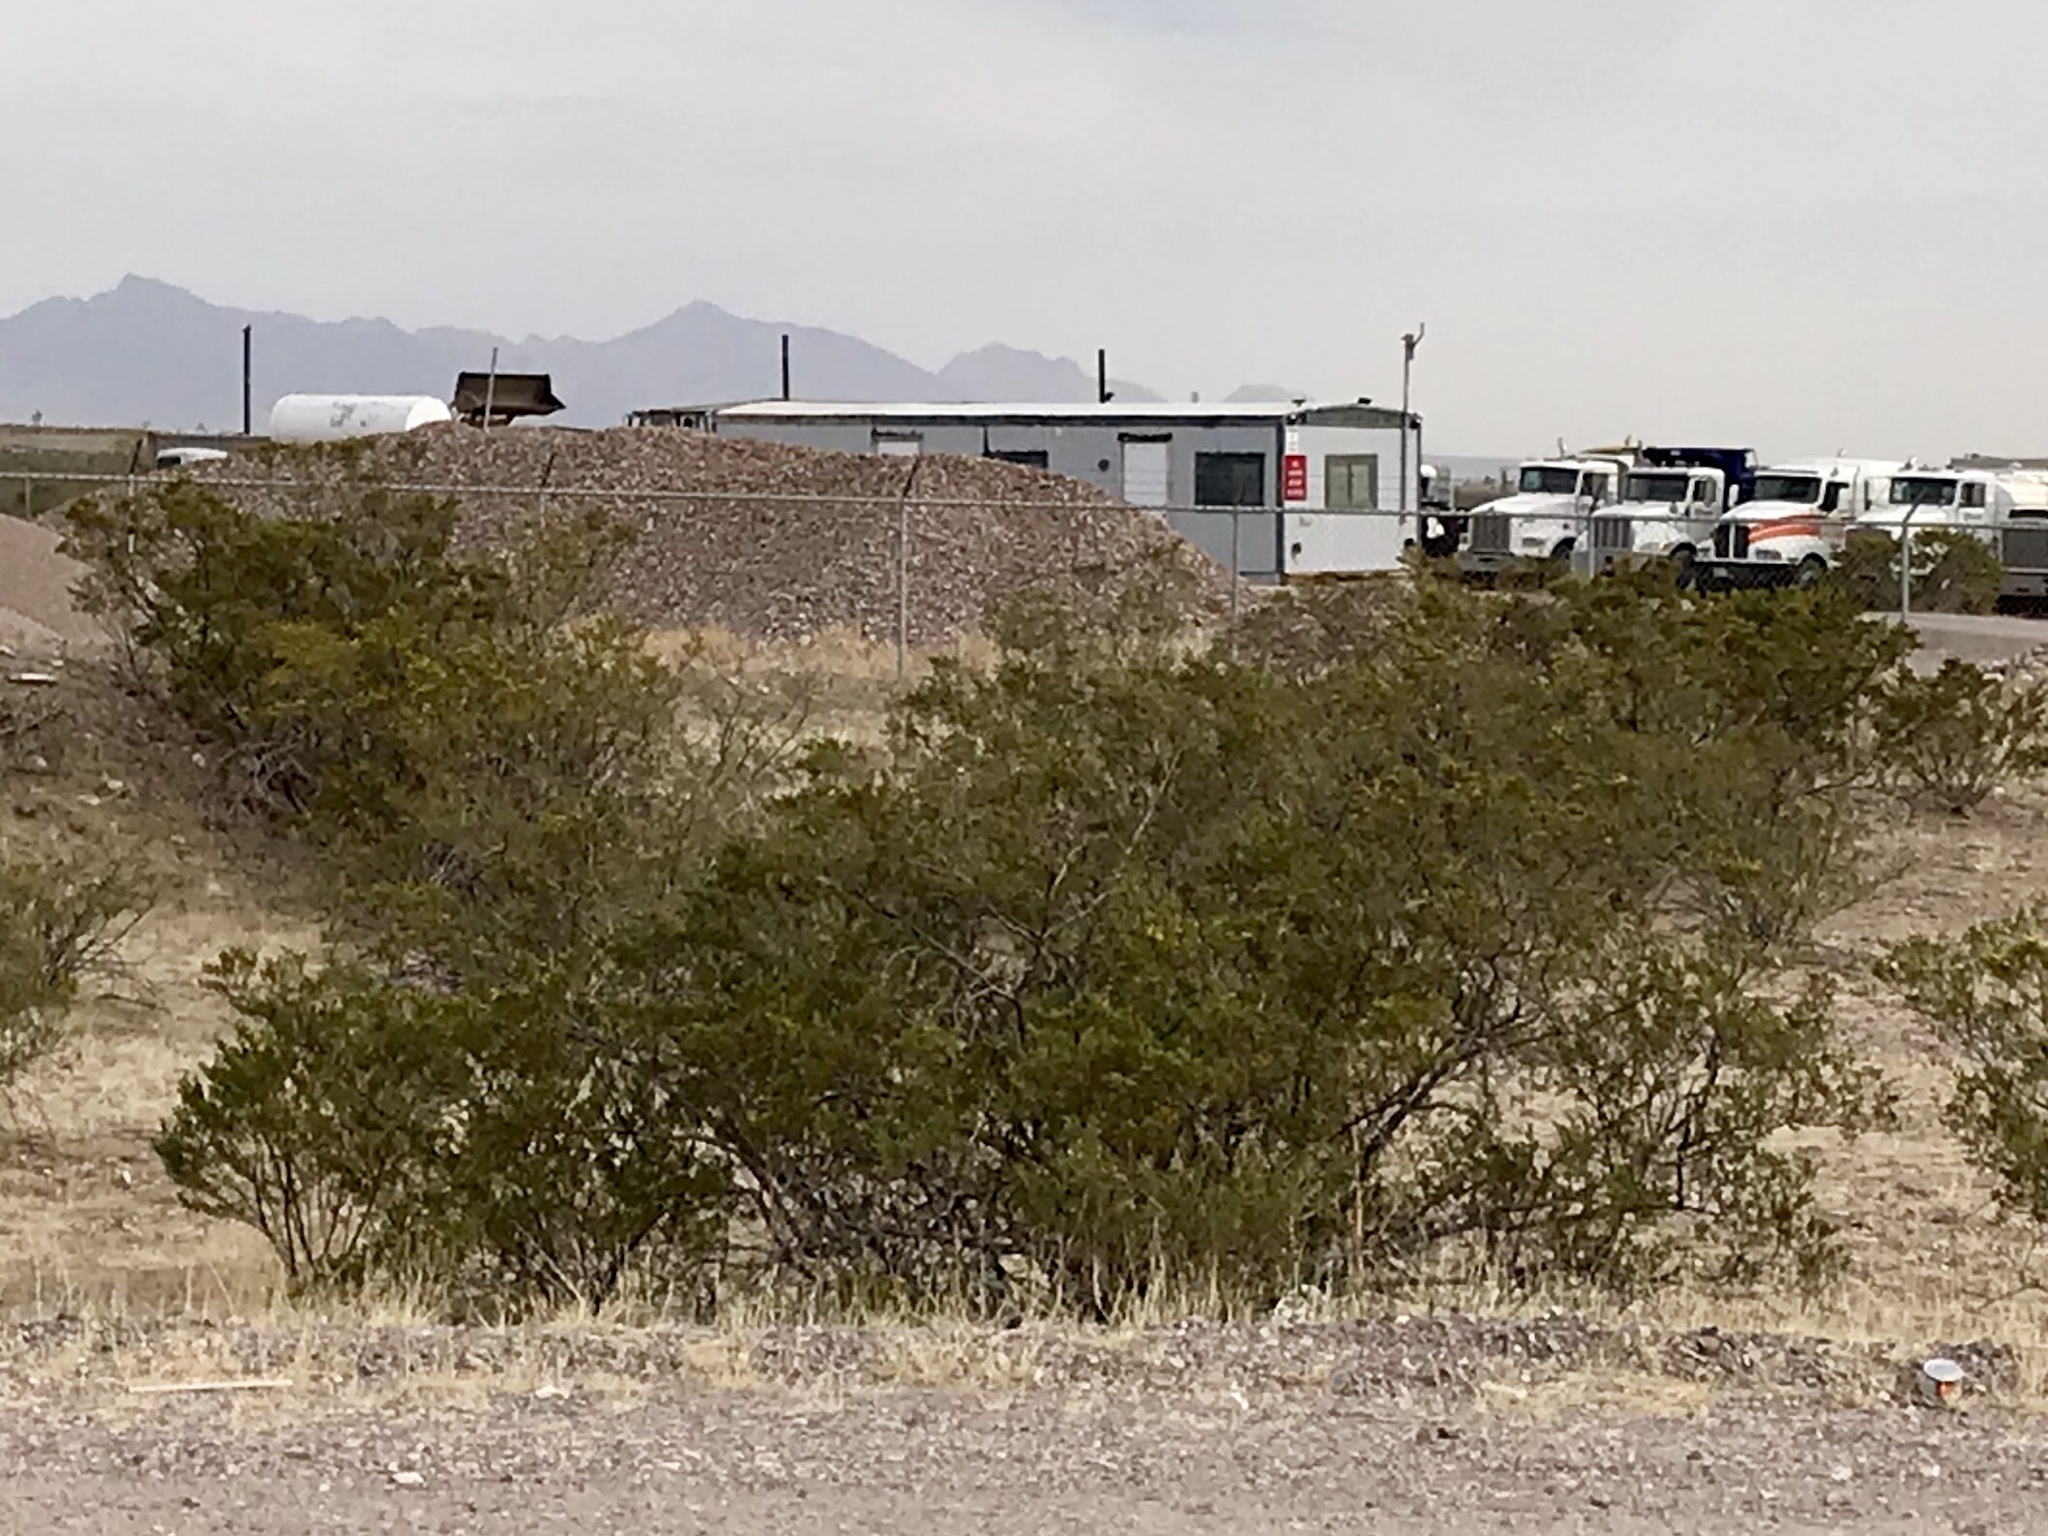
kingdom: Plantae
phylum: Tracheophyta
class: Magnoliopsida
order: Zygophyllales
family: Zygophyllaceae
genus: Larrea
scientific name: Larrea tridentata
